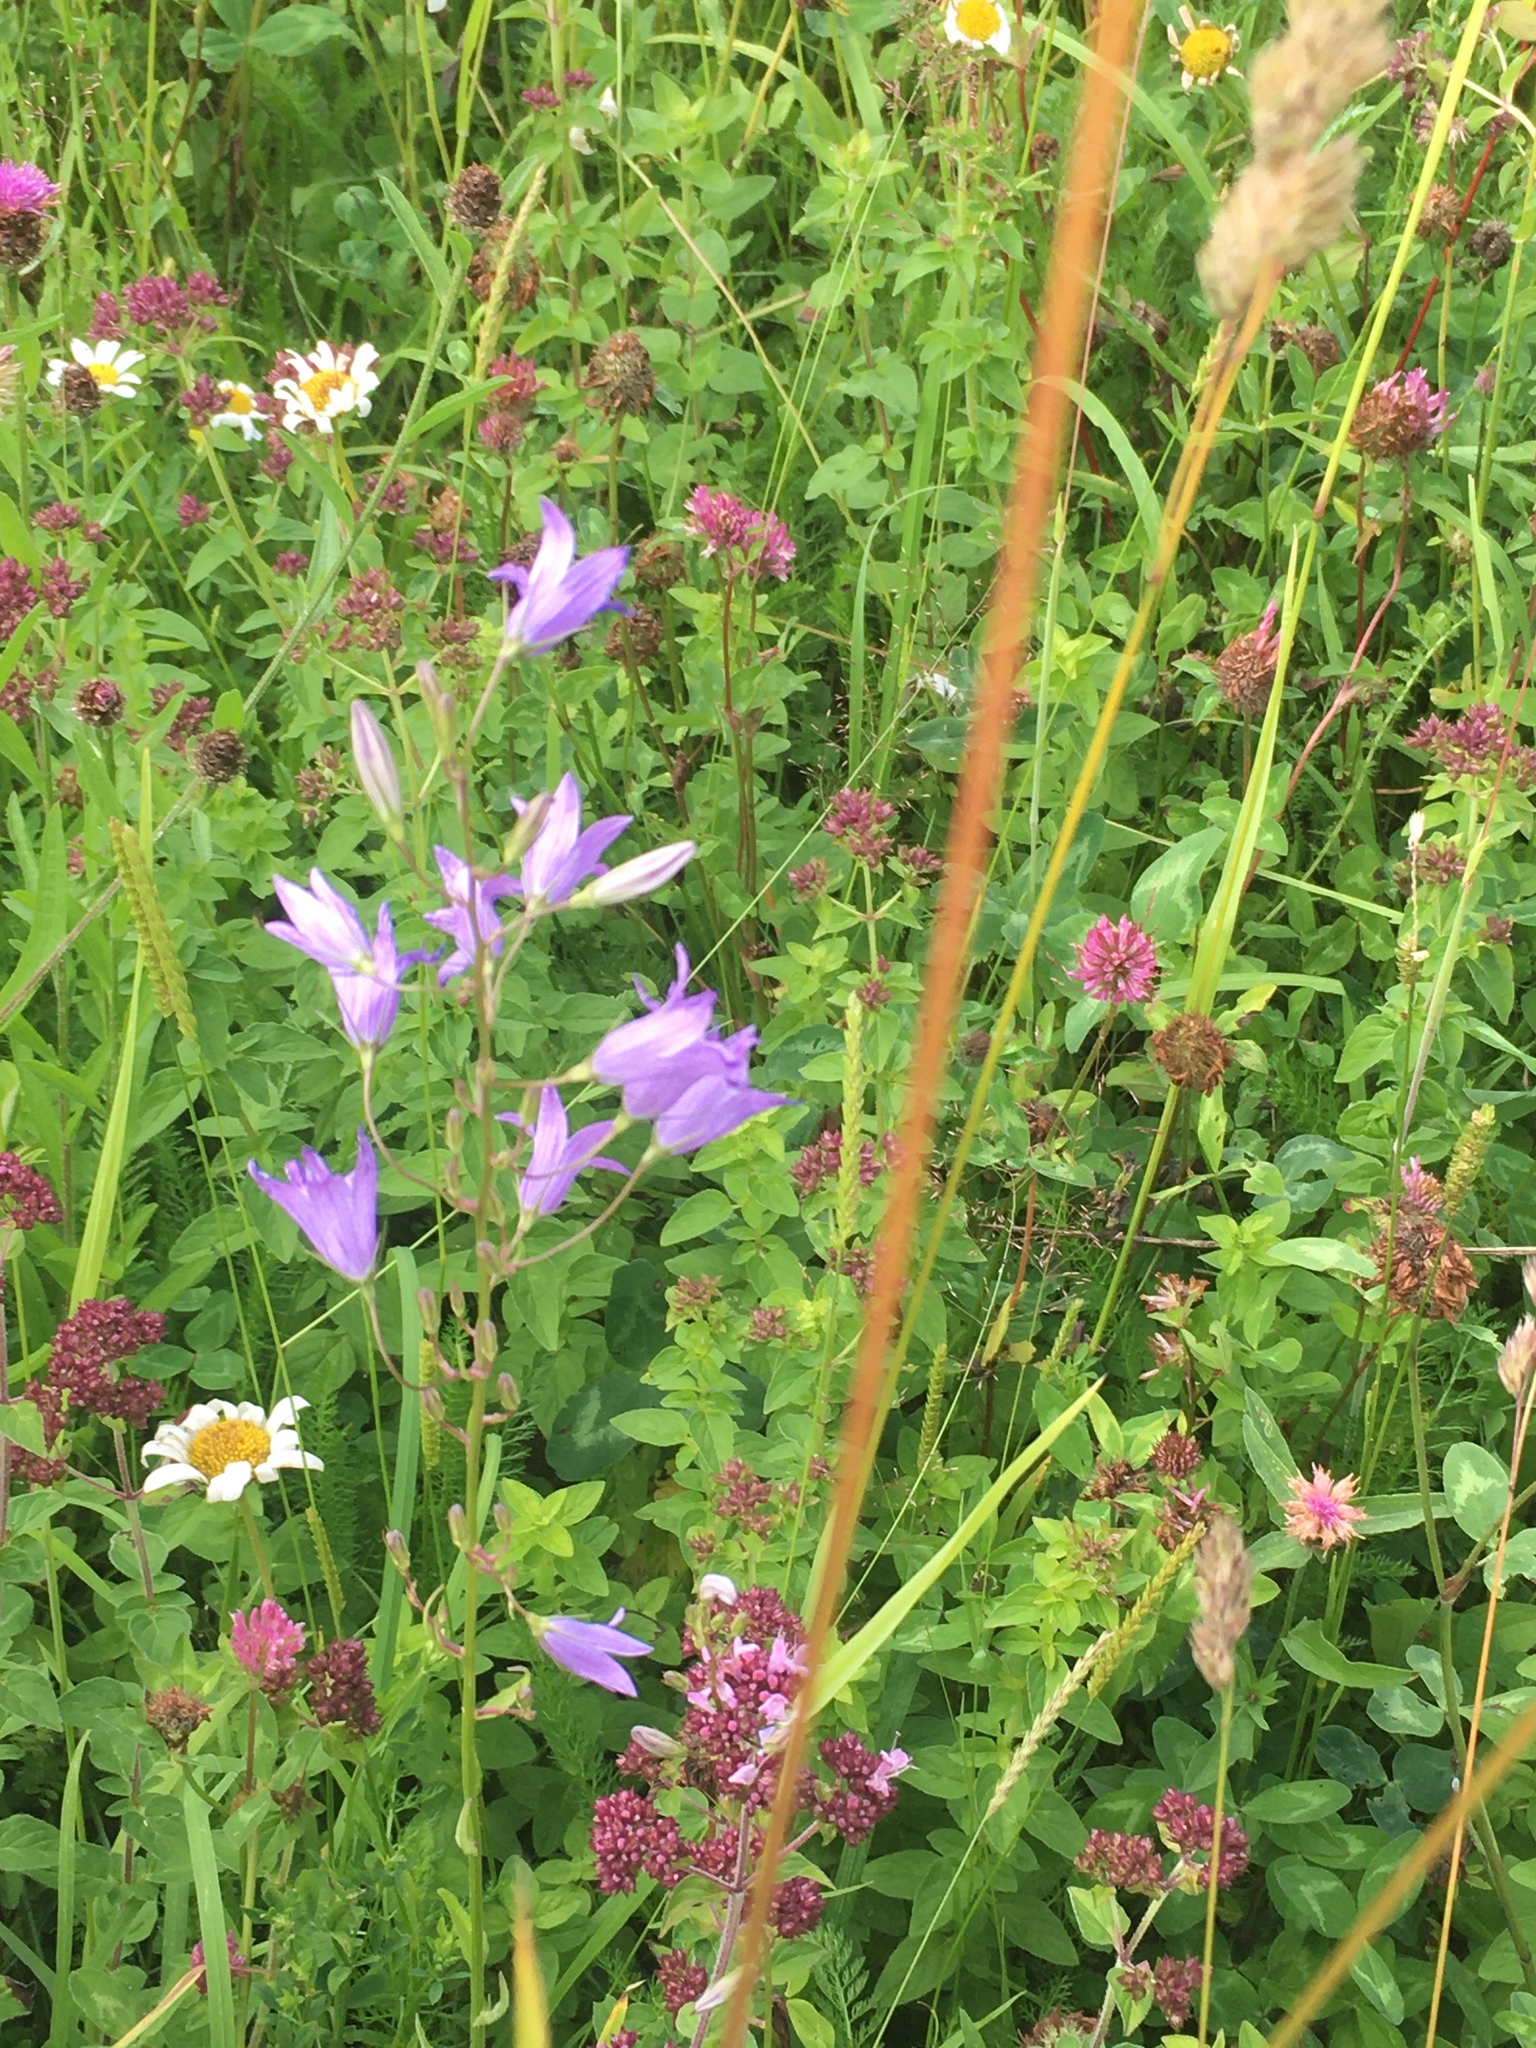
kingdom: Plantae
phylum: Tracheophyta
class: Magnoliopsida
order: Asterales
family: Campanulaceae
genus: Campanula
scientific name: Campanula rapunculus
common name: Rampion bellflower
